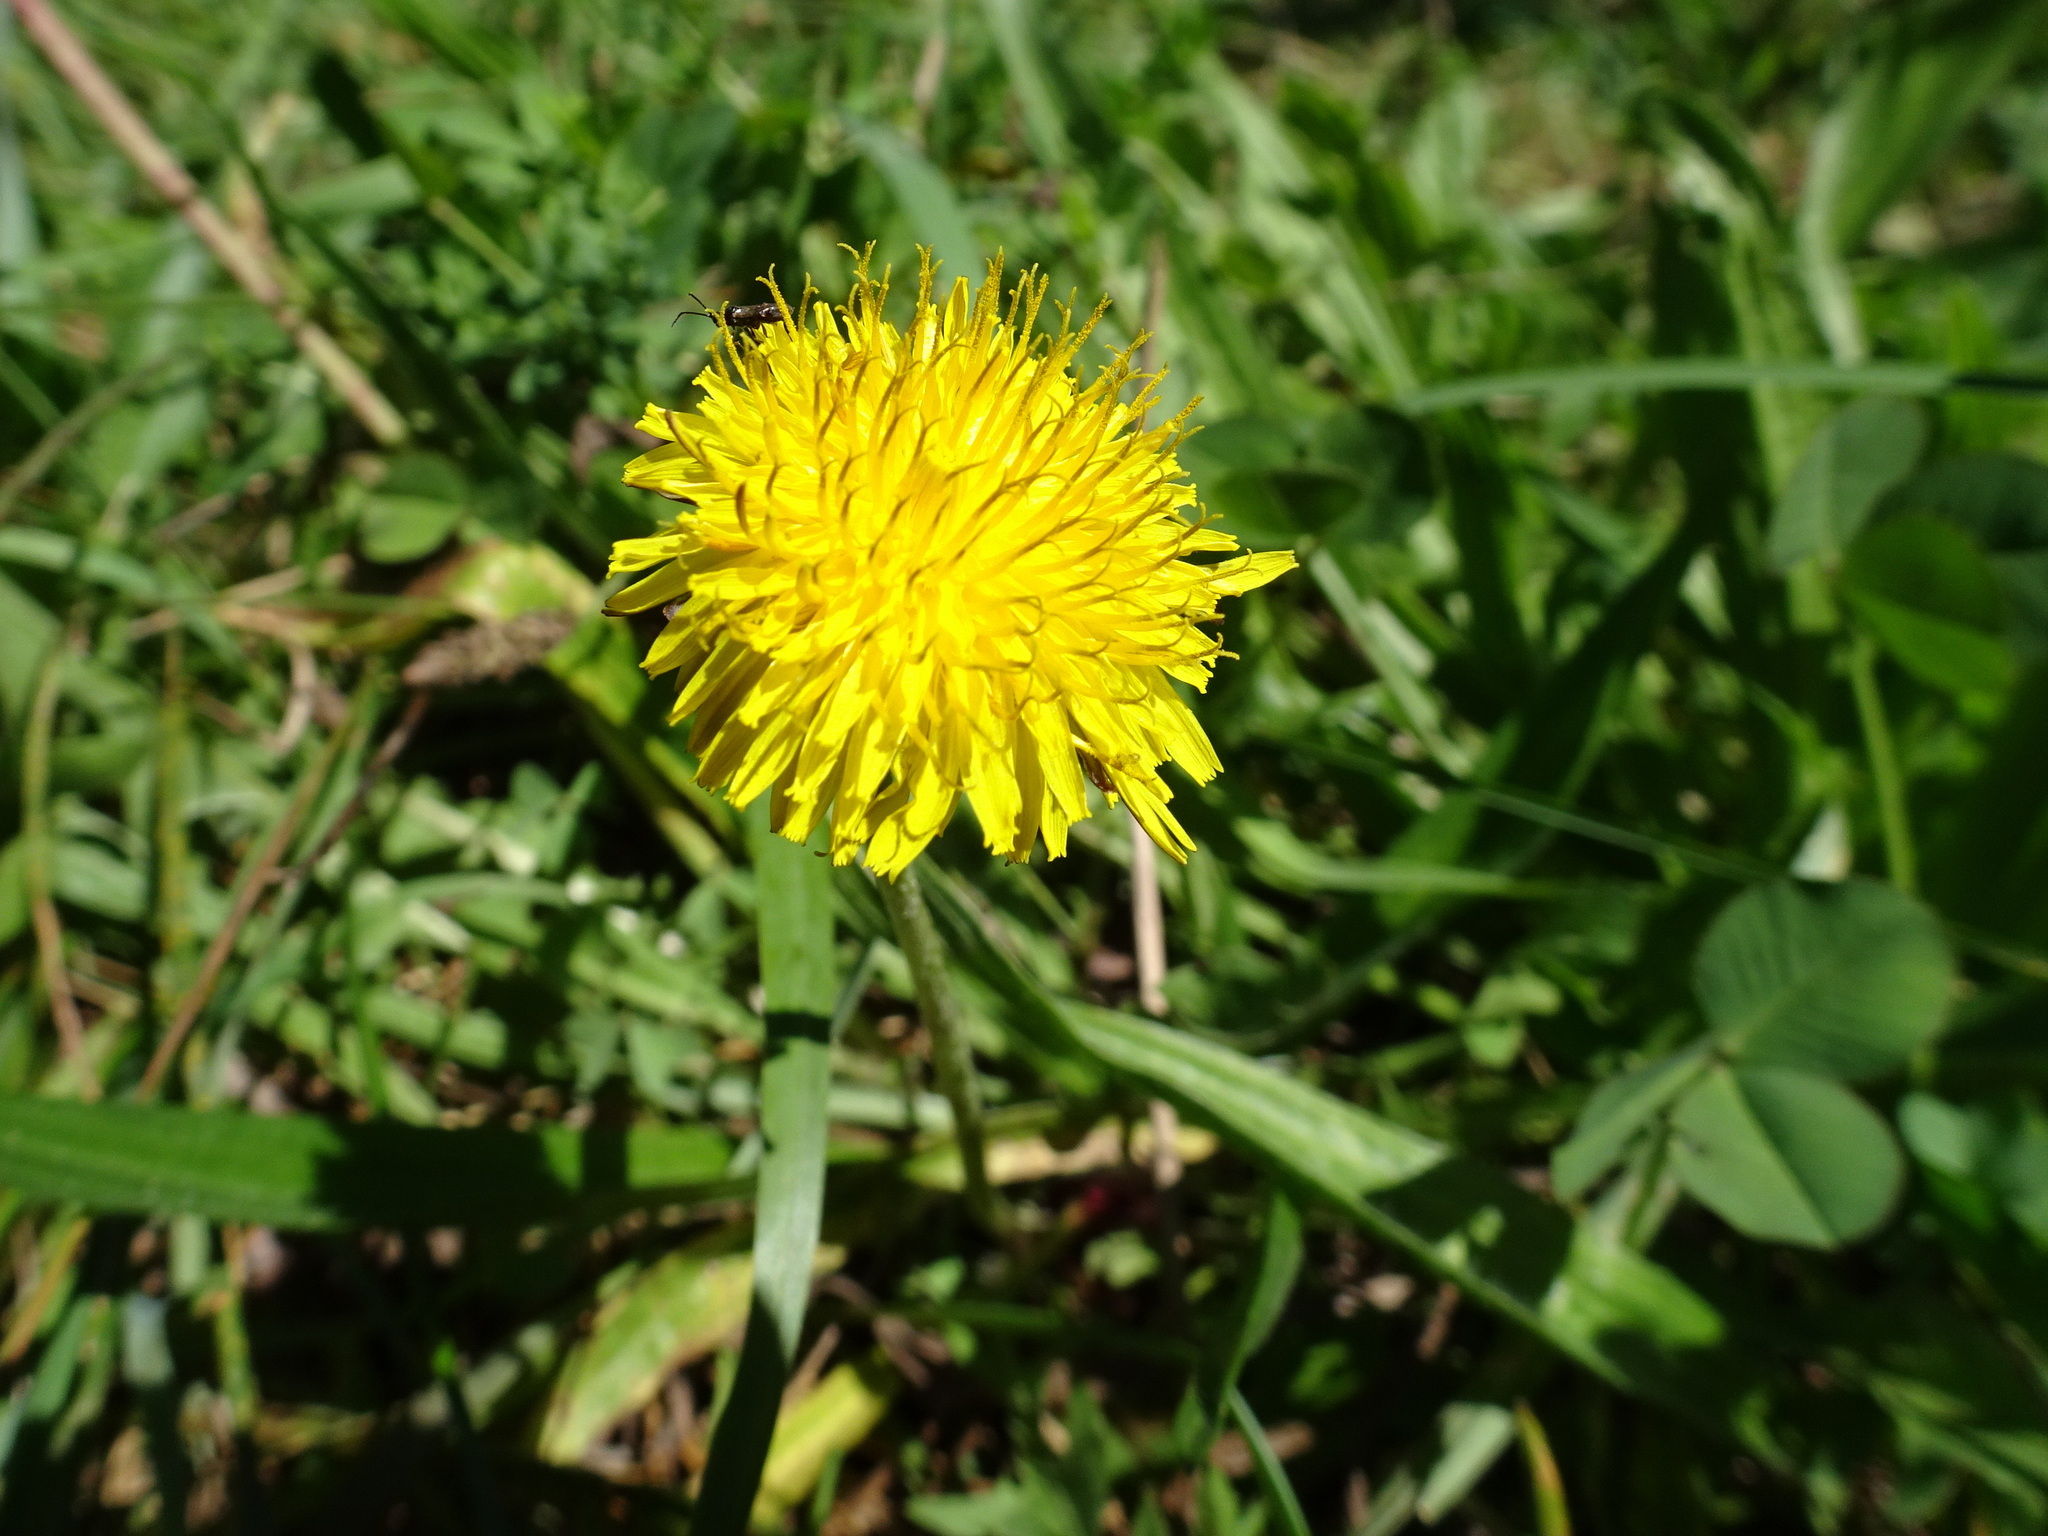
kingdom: Plantae
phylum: Tracheophyta
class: Magnoliopsida
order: Asterales
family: Asteraceae
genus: Taraxacum
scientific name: Taraxacum officinale
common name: Common dandelion
